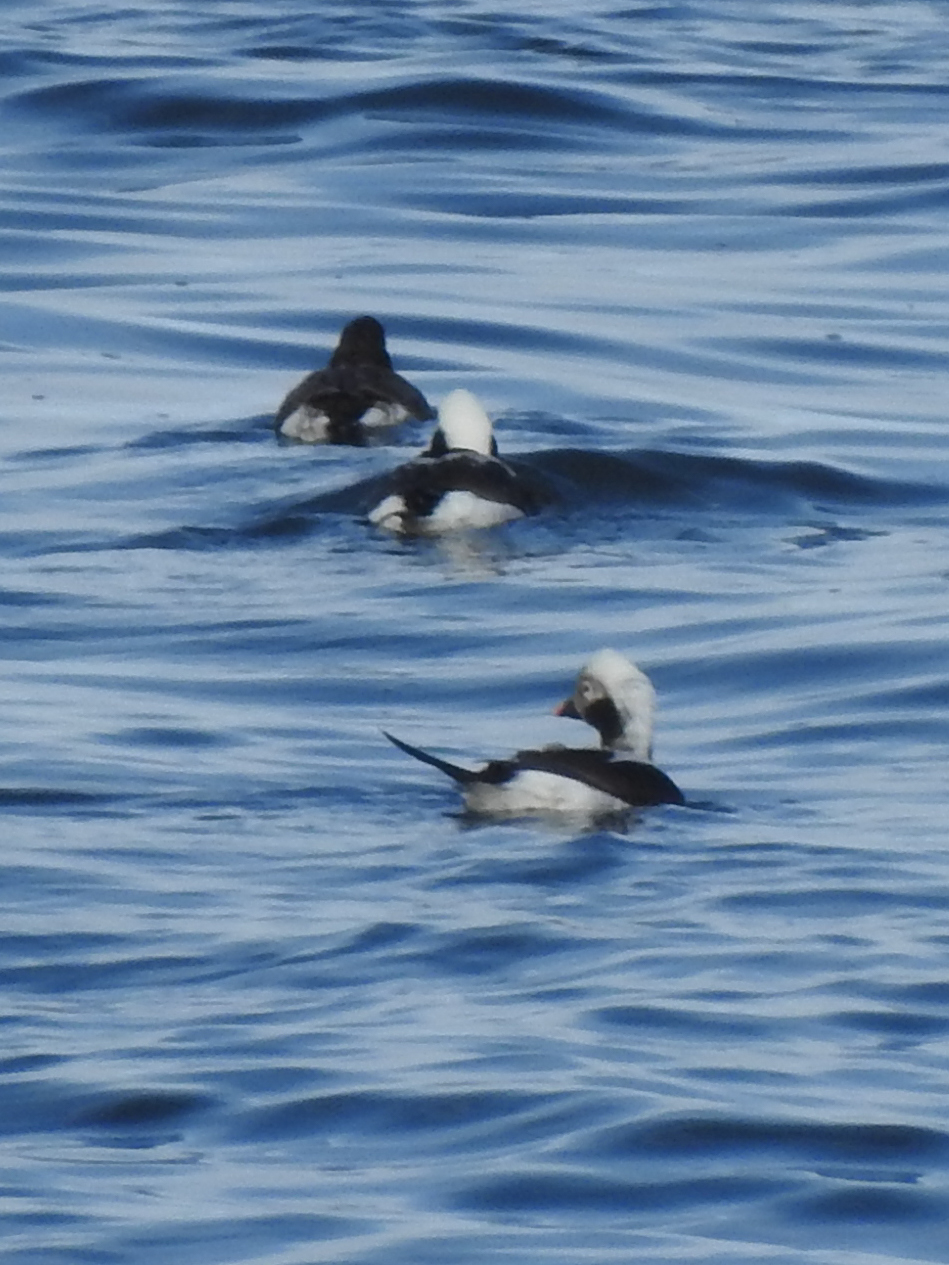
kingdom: Animalia
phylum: Chordata
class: Aves
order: Anseriformes
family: Anatidae
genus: Clangula
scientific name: Clangula hyemalis
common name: Long-tailed duck
